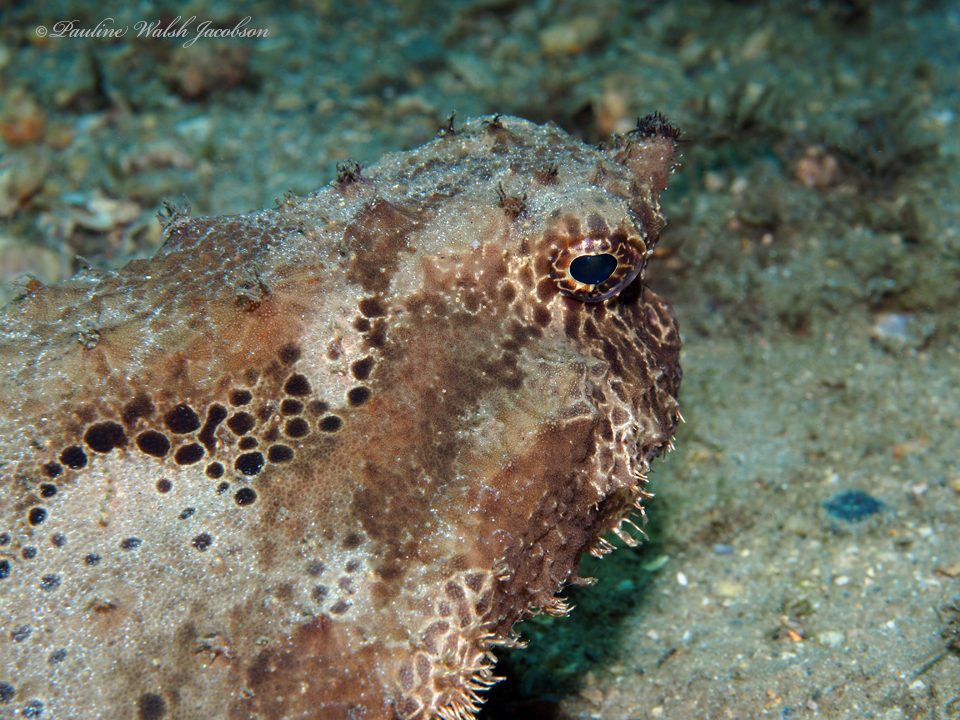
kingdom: Animalia
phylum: Chordata
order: Lophiiformes
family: Ogcocephalidae
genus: Ogcocephalus
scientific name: Ogcocephalus cubifrons
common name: Polka-dot batfish
